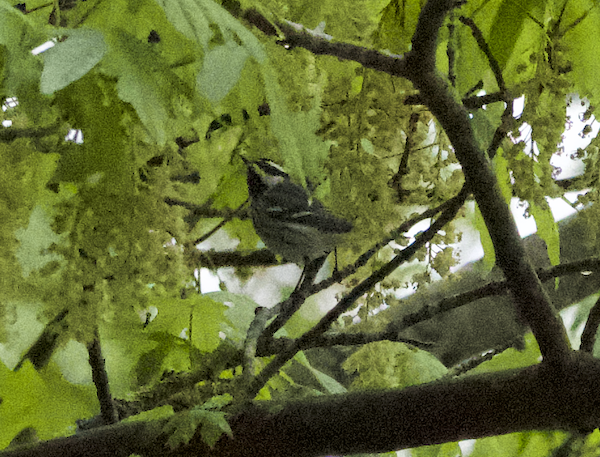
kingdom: Animalia
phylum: Chordata
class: Aves
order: Passeriformes
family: Parulidae
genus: Setophaga
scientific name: Setophaga nigrescens
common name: Black-throated gray warbler
